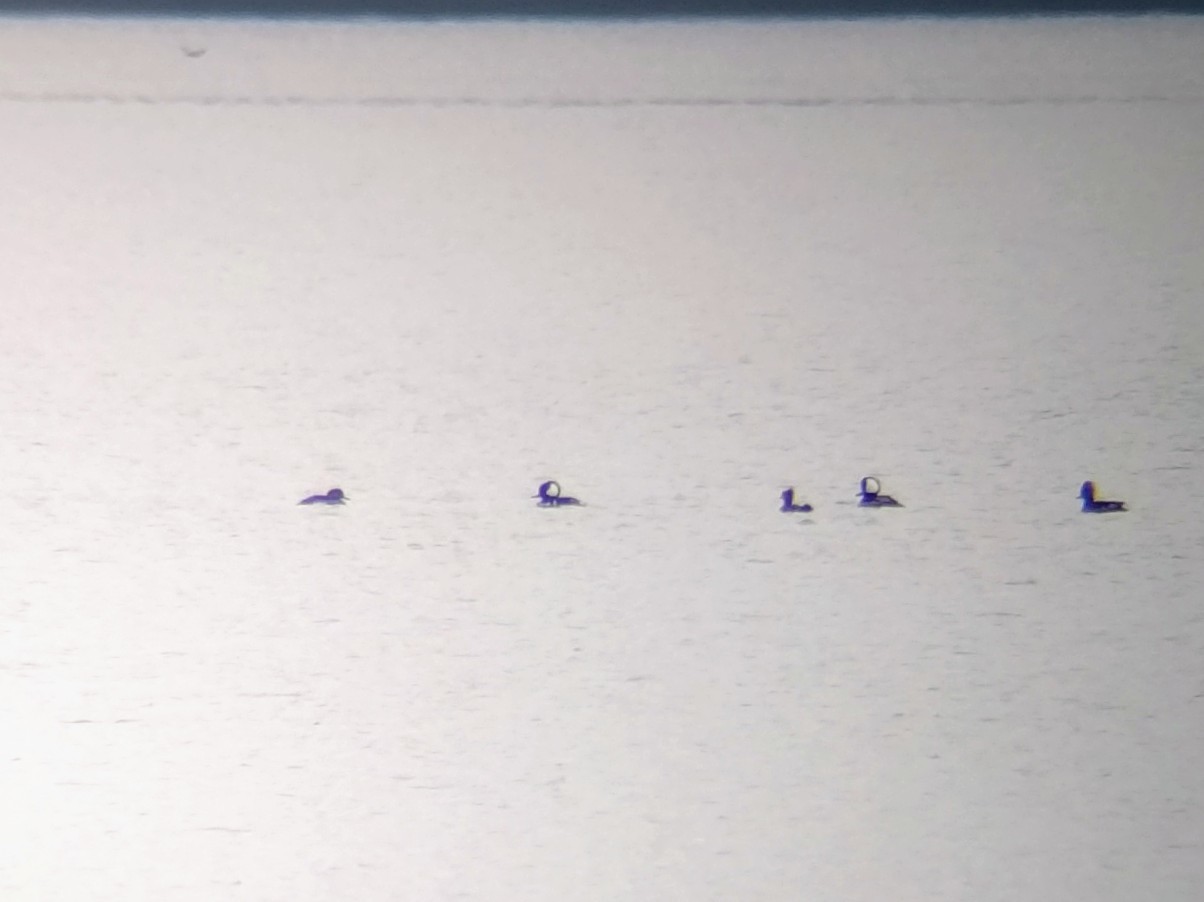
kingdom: Animalia
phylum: Chordata
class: Aves
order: Anseriformes
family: Anatidae
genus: Lophodytes
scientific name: Lophodytes cucullatus
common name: Hooded merganser
